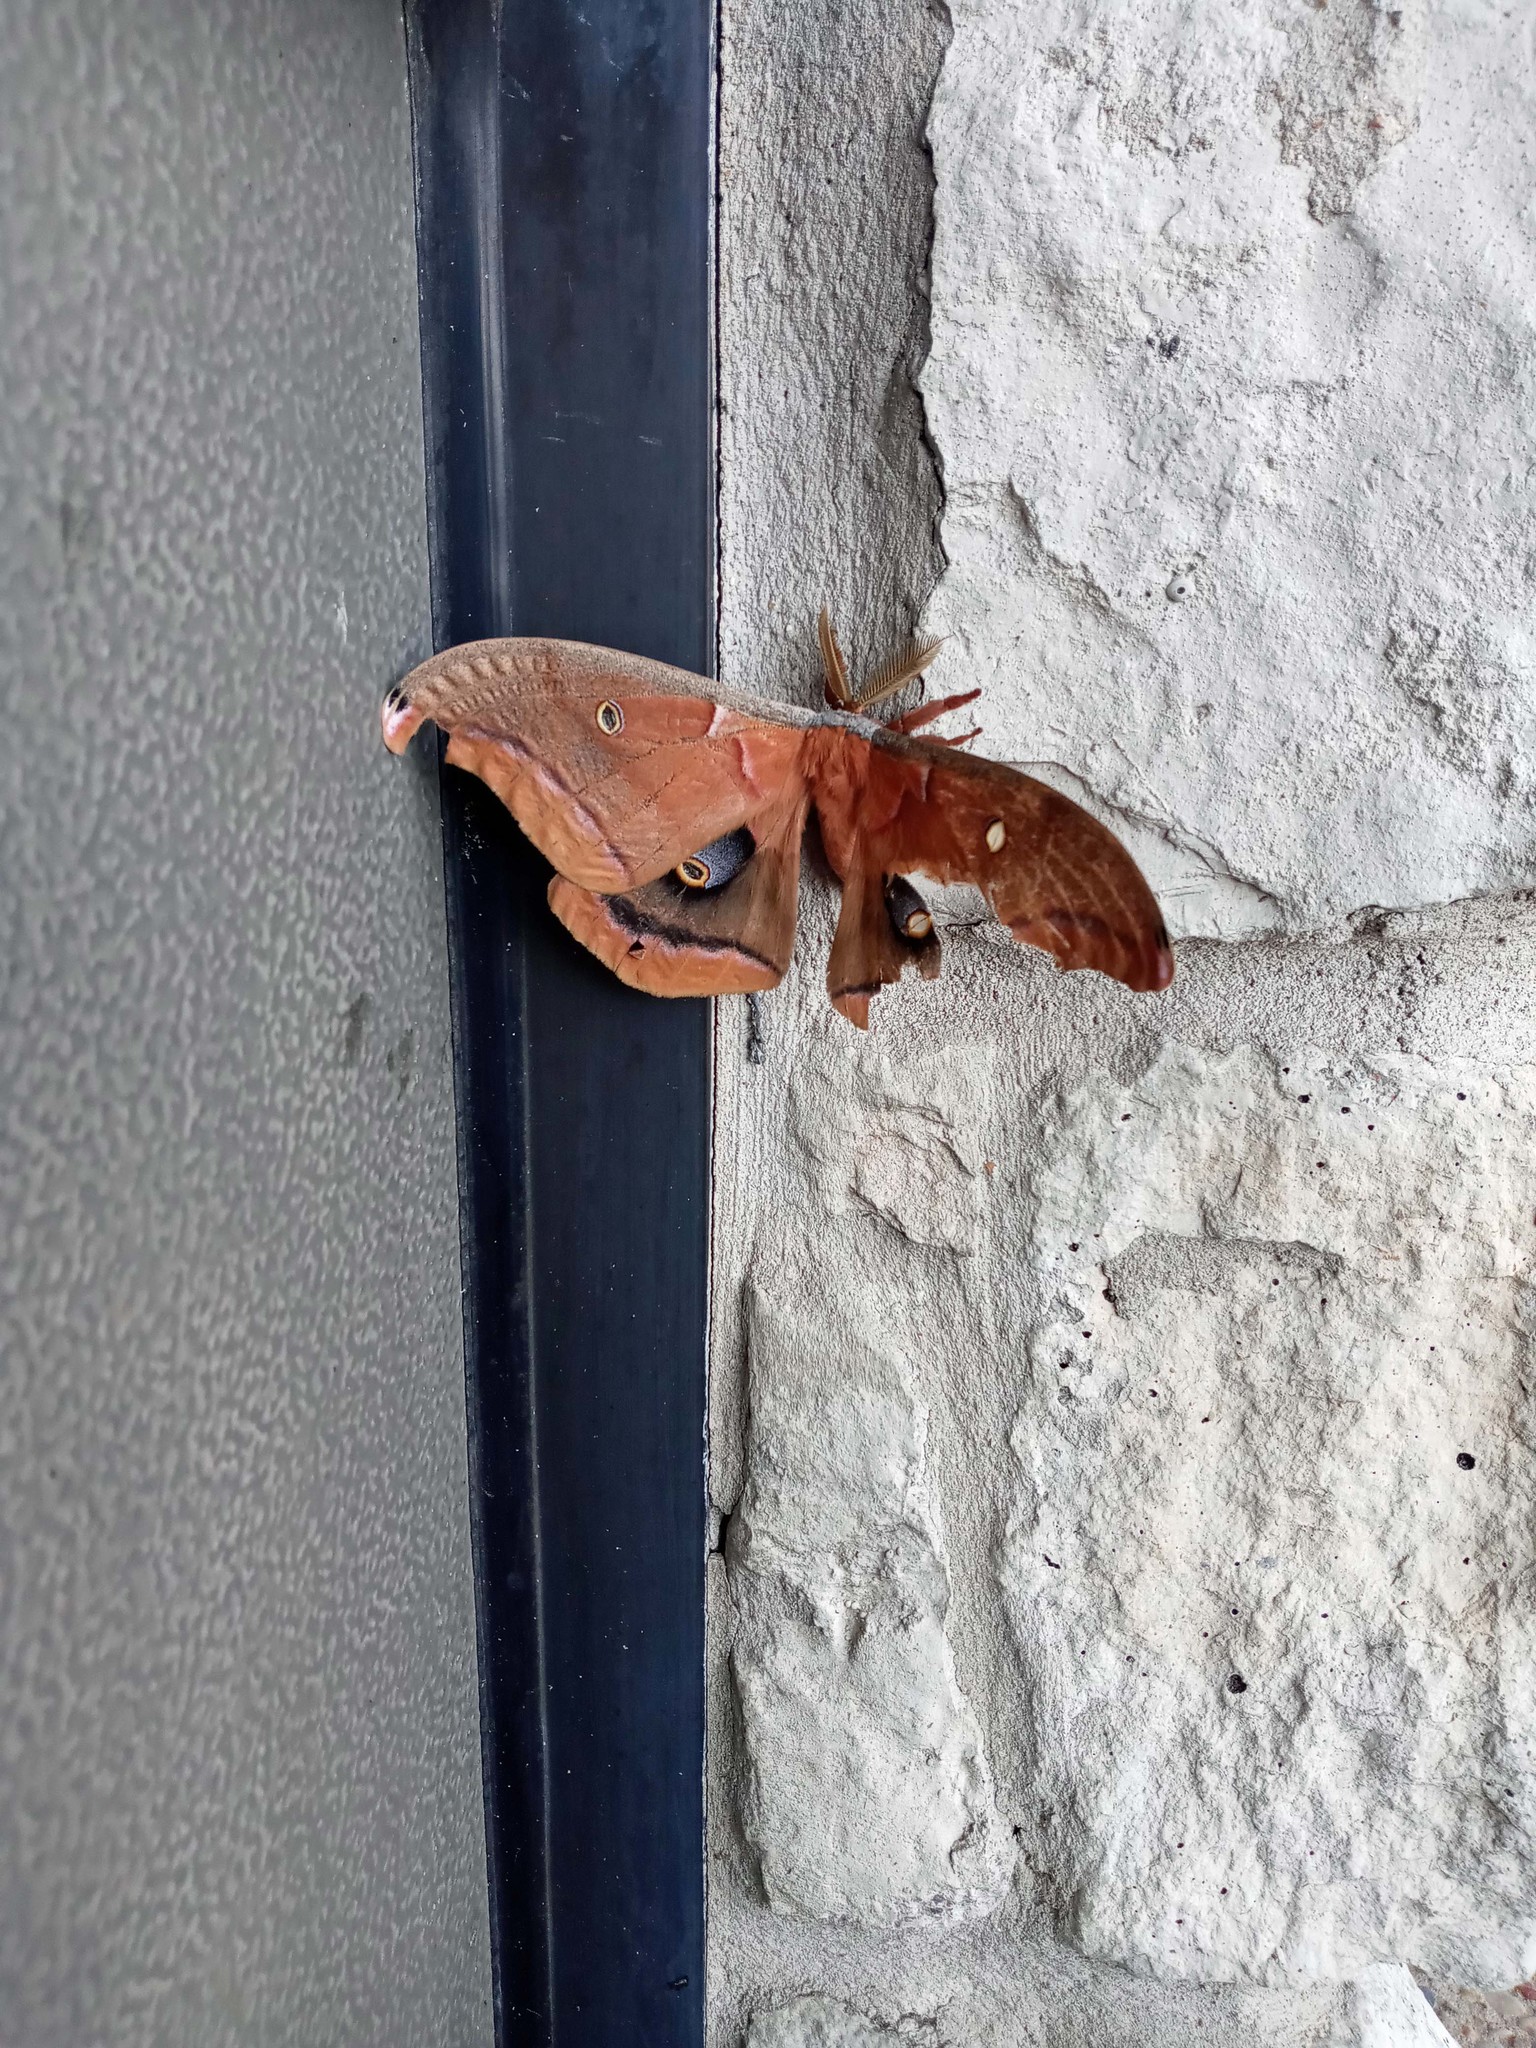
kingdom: Animalia
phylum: Arthropoda
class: Insecta
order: Lepidoptera
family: Saturniidae
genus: Antheraea
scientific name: Antheraea polyphemus
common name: Polyphemus moth
